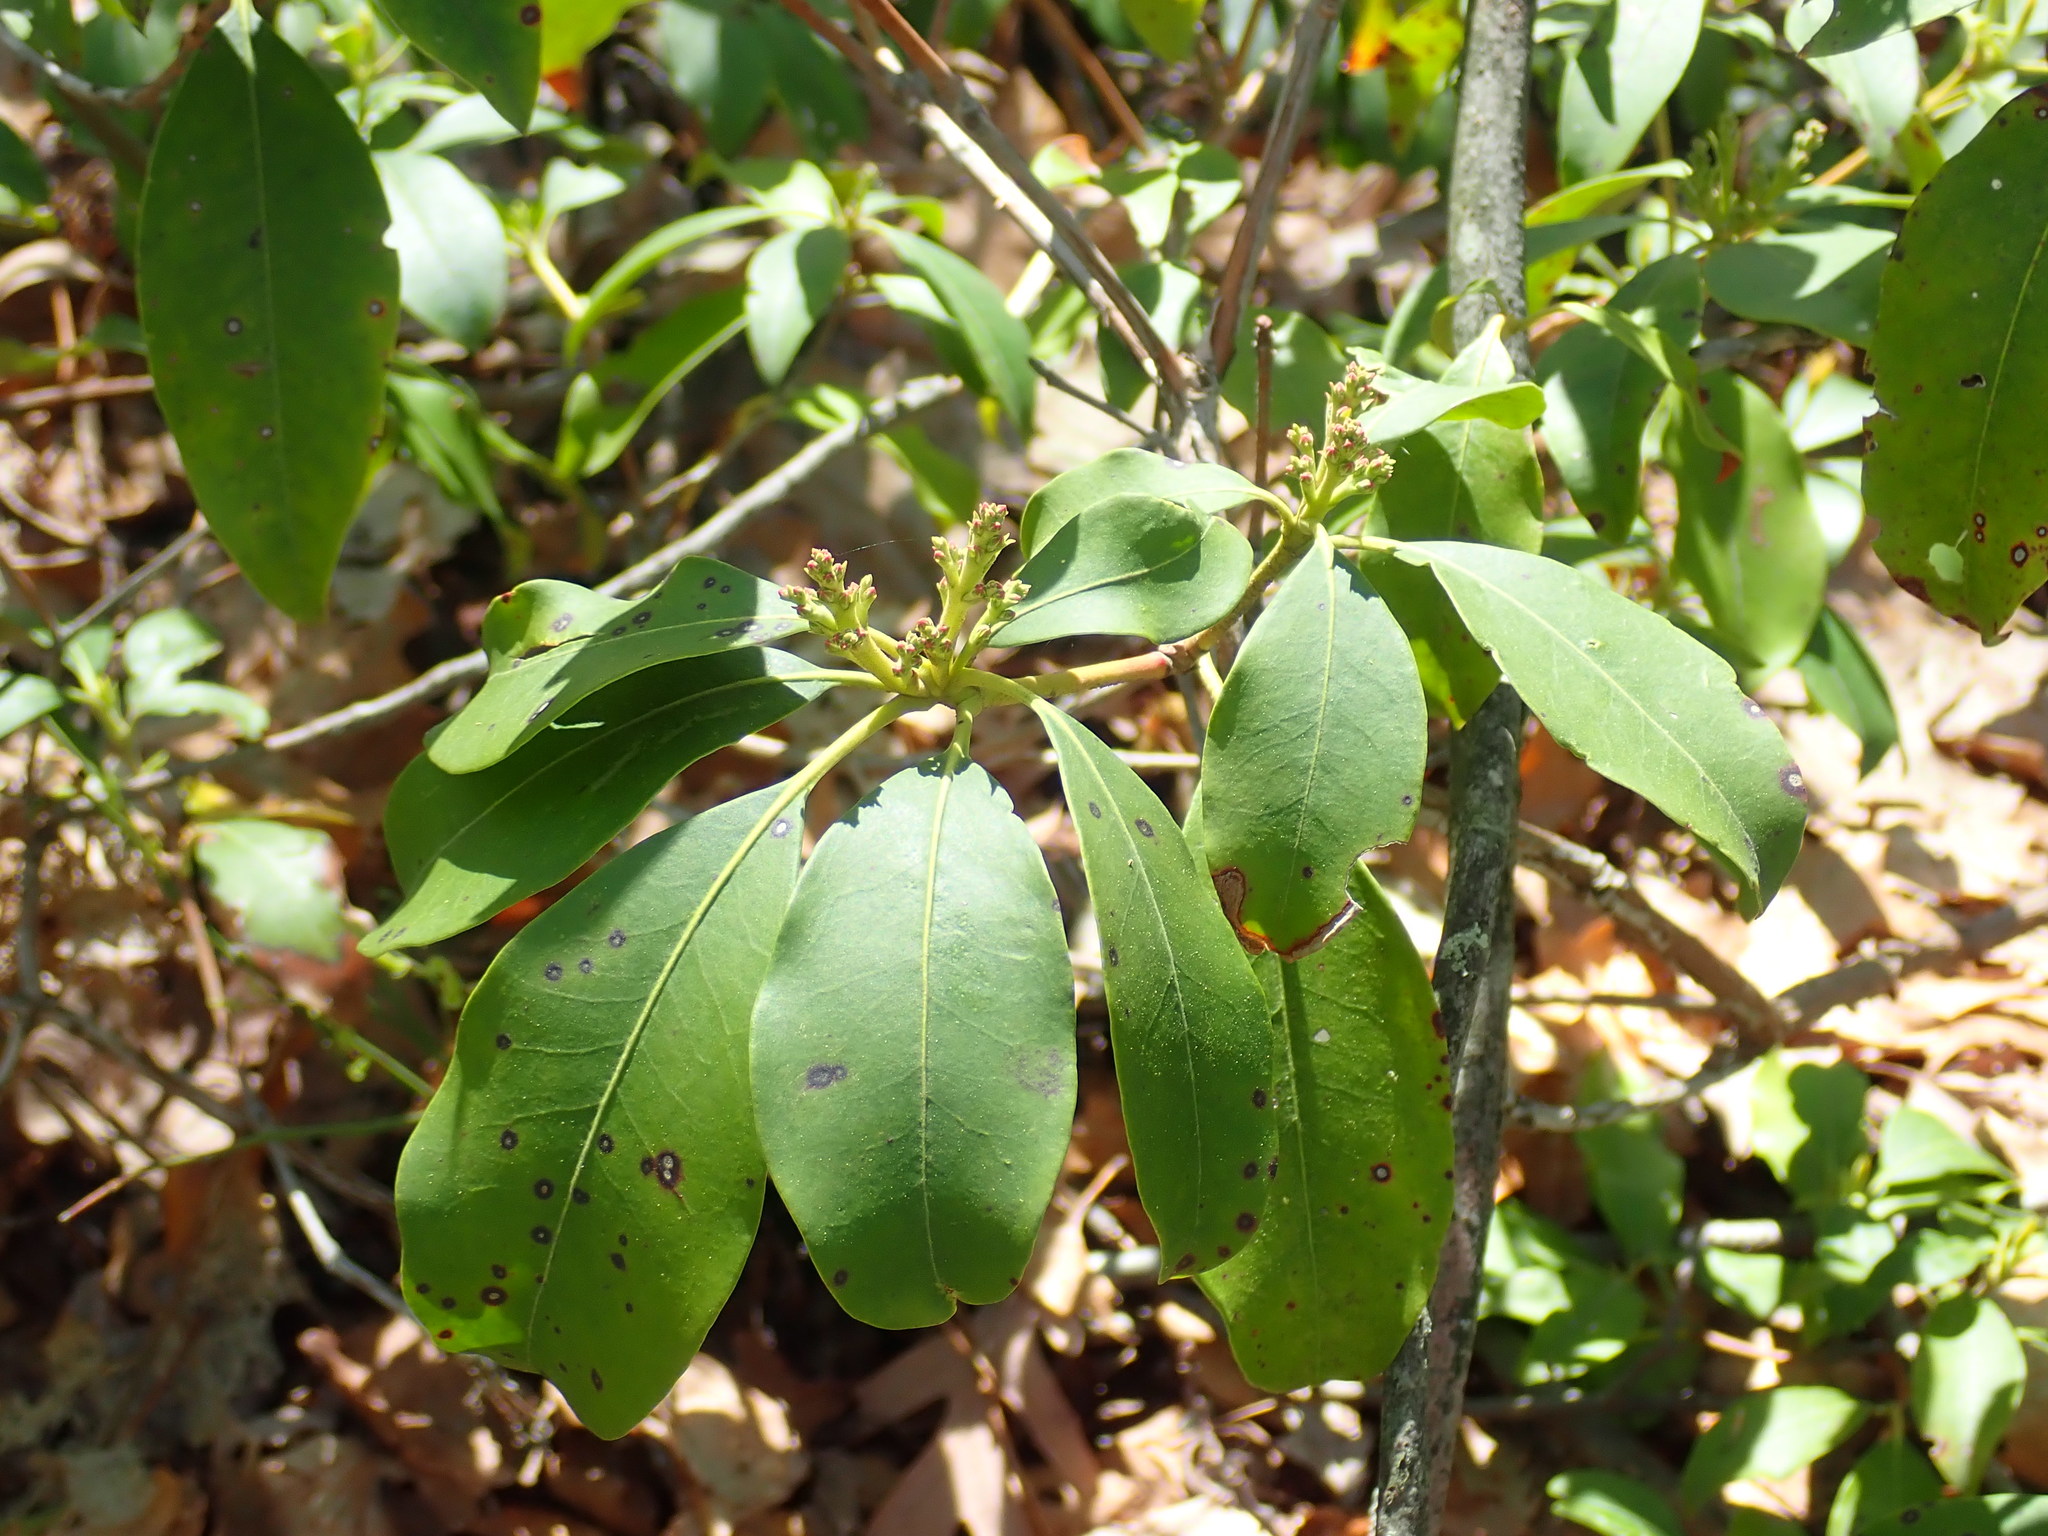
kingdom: Plantae
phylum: Tracheophyta
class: Magnoliopsida
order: Ericales
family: Ericaceae
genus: Kalmia
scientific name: Kalmia latifolia
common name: Mountain-laurel
